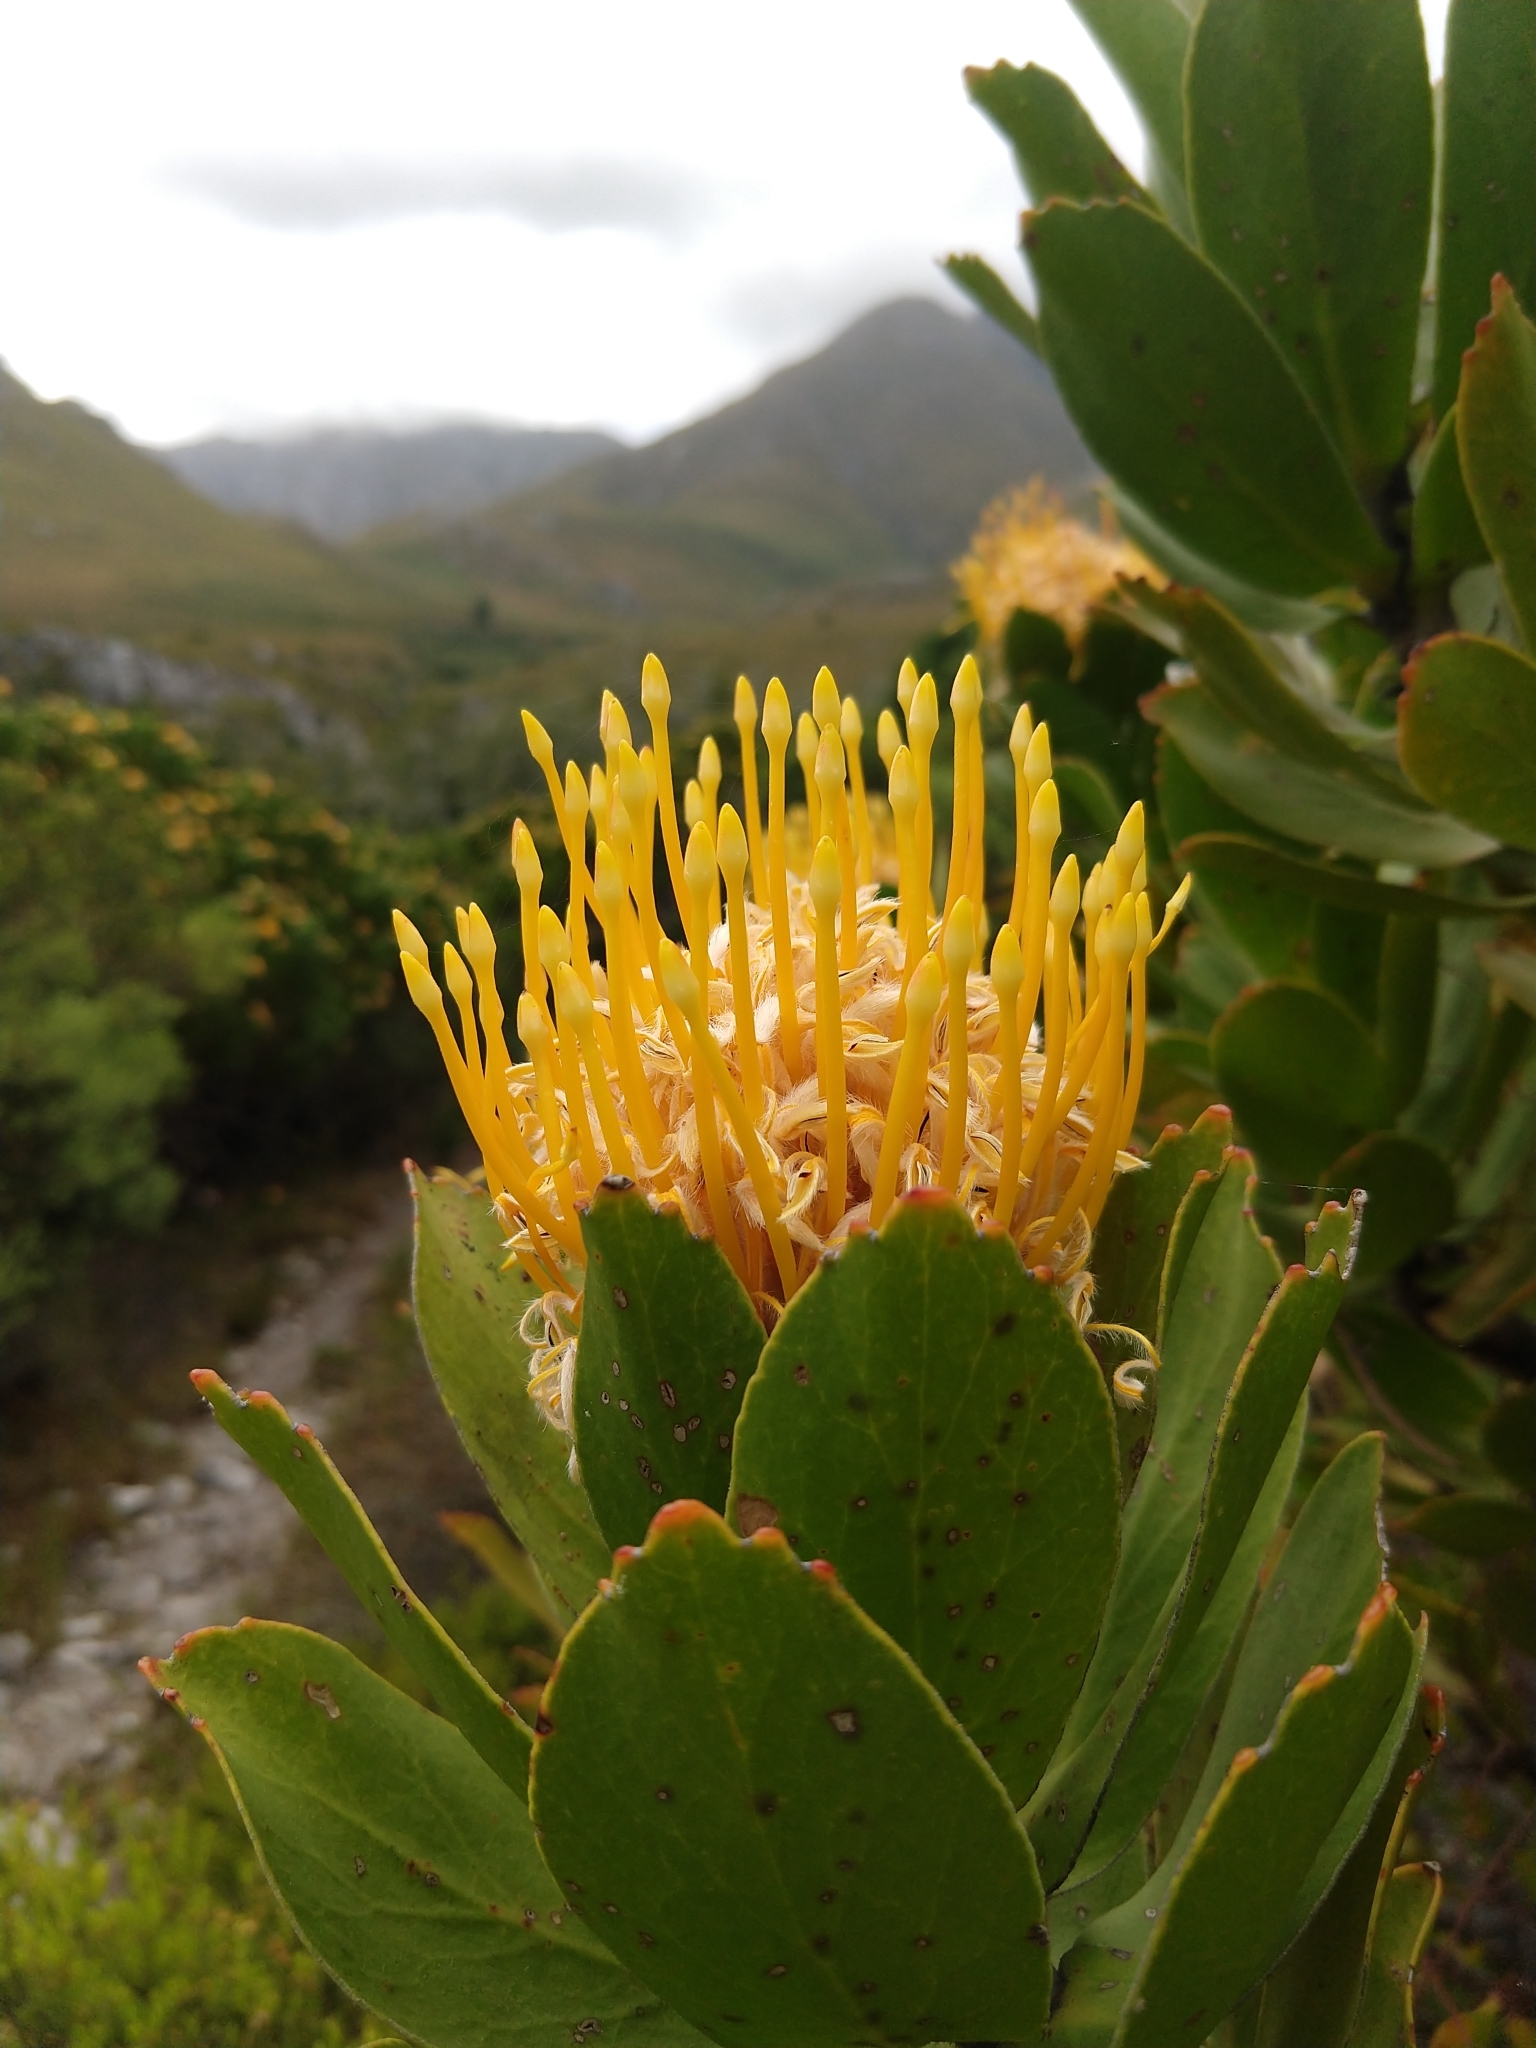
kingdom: Plantae
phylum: Tracheophyta
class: Magnoliopsida
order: Proteales
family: Proteaceae
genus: Leucospermum
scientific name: Leucospermum conocarpodendron
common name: Tree pincushion
